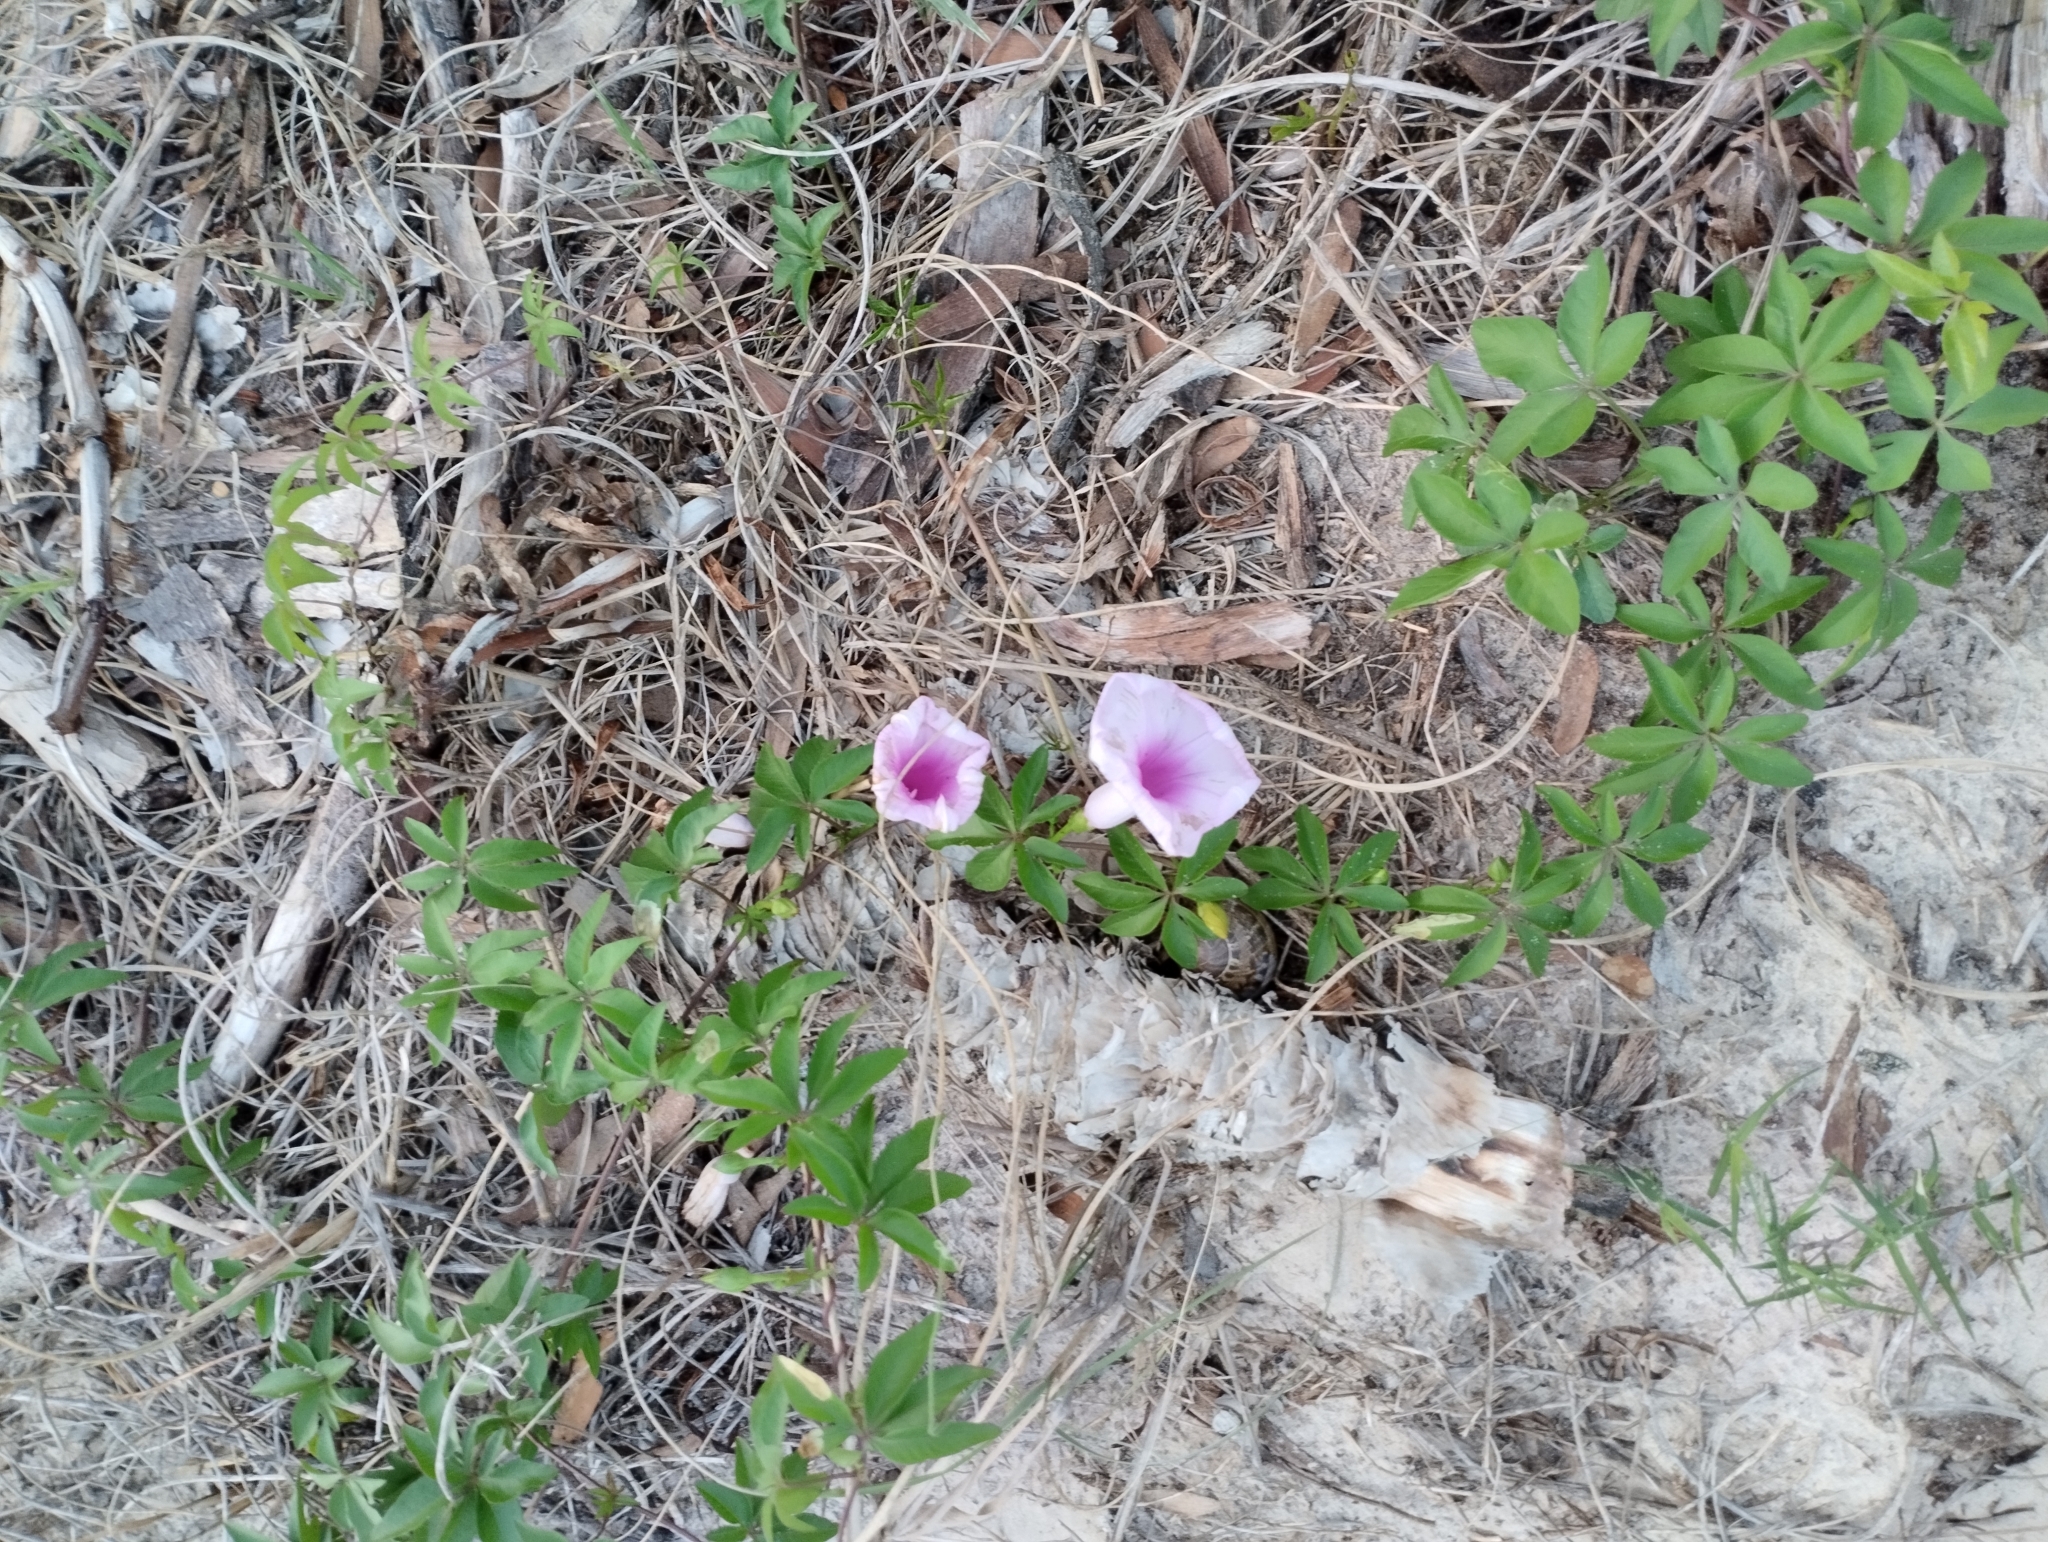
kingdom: Plantae
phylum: Tracheophyta
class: Magnoliopsida
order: Solanales
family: Convolvulaceae
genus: Ipomoea
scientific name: Ipomoea cairica
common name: Mile a minute vine
